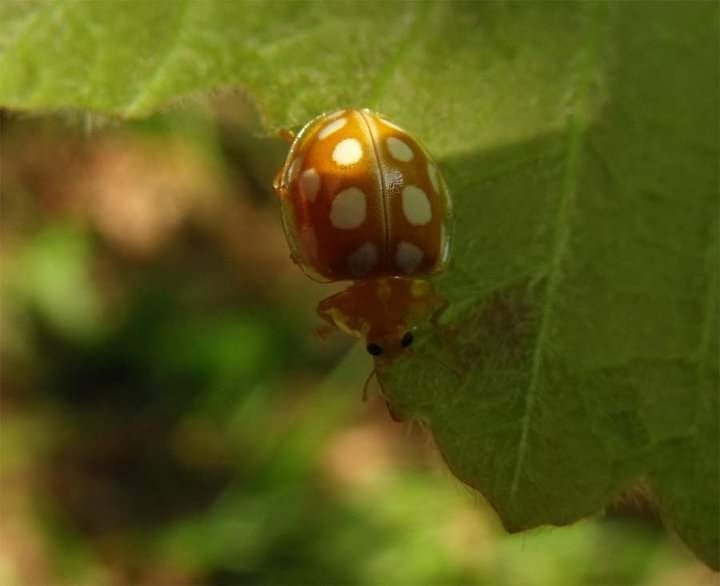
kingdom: Animalia
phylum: Arthropoda
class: Insecta
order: Coleoptera
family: Coccinellidae
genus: Halyzia
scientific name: Halyzia sedecimguttata
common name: Orange ladybird
